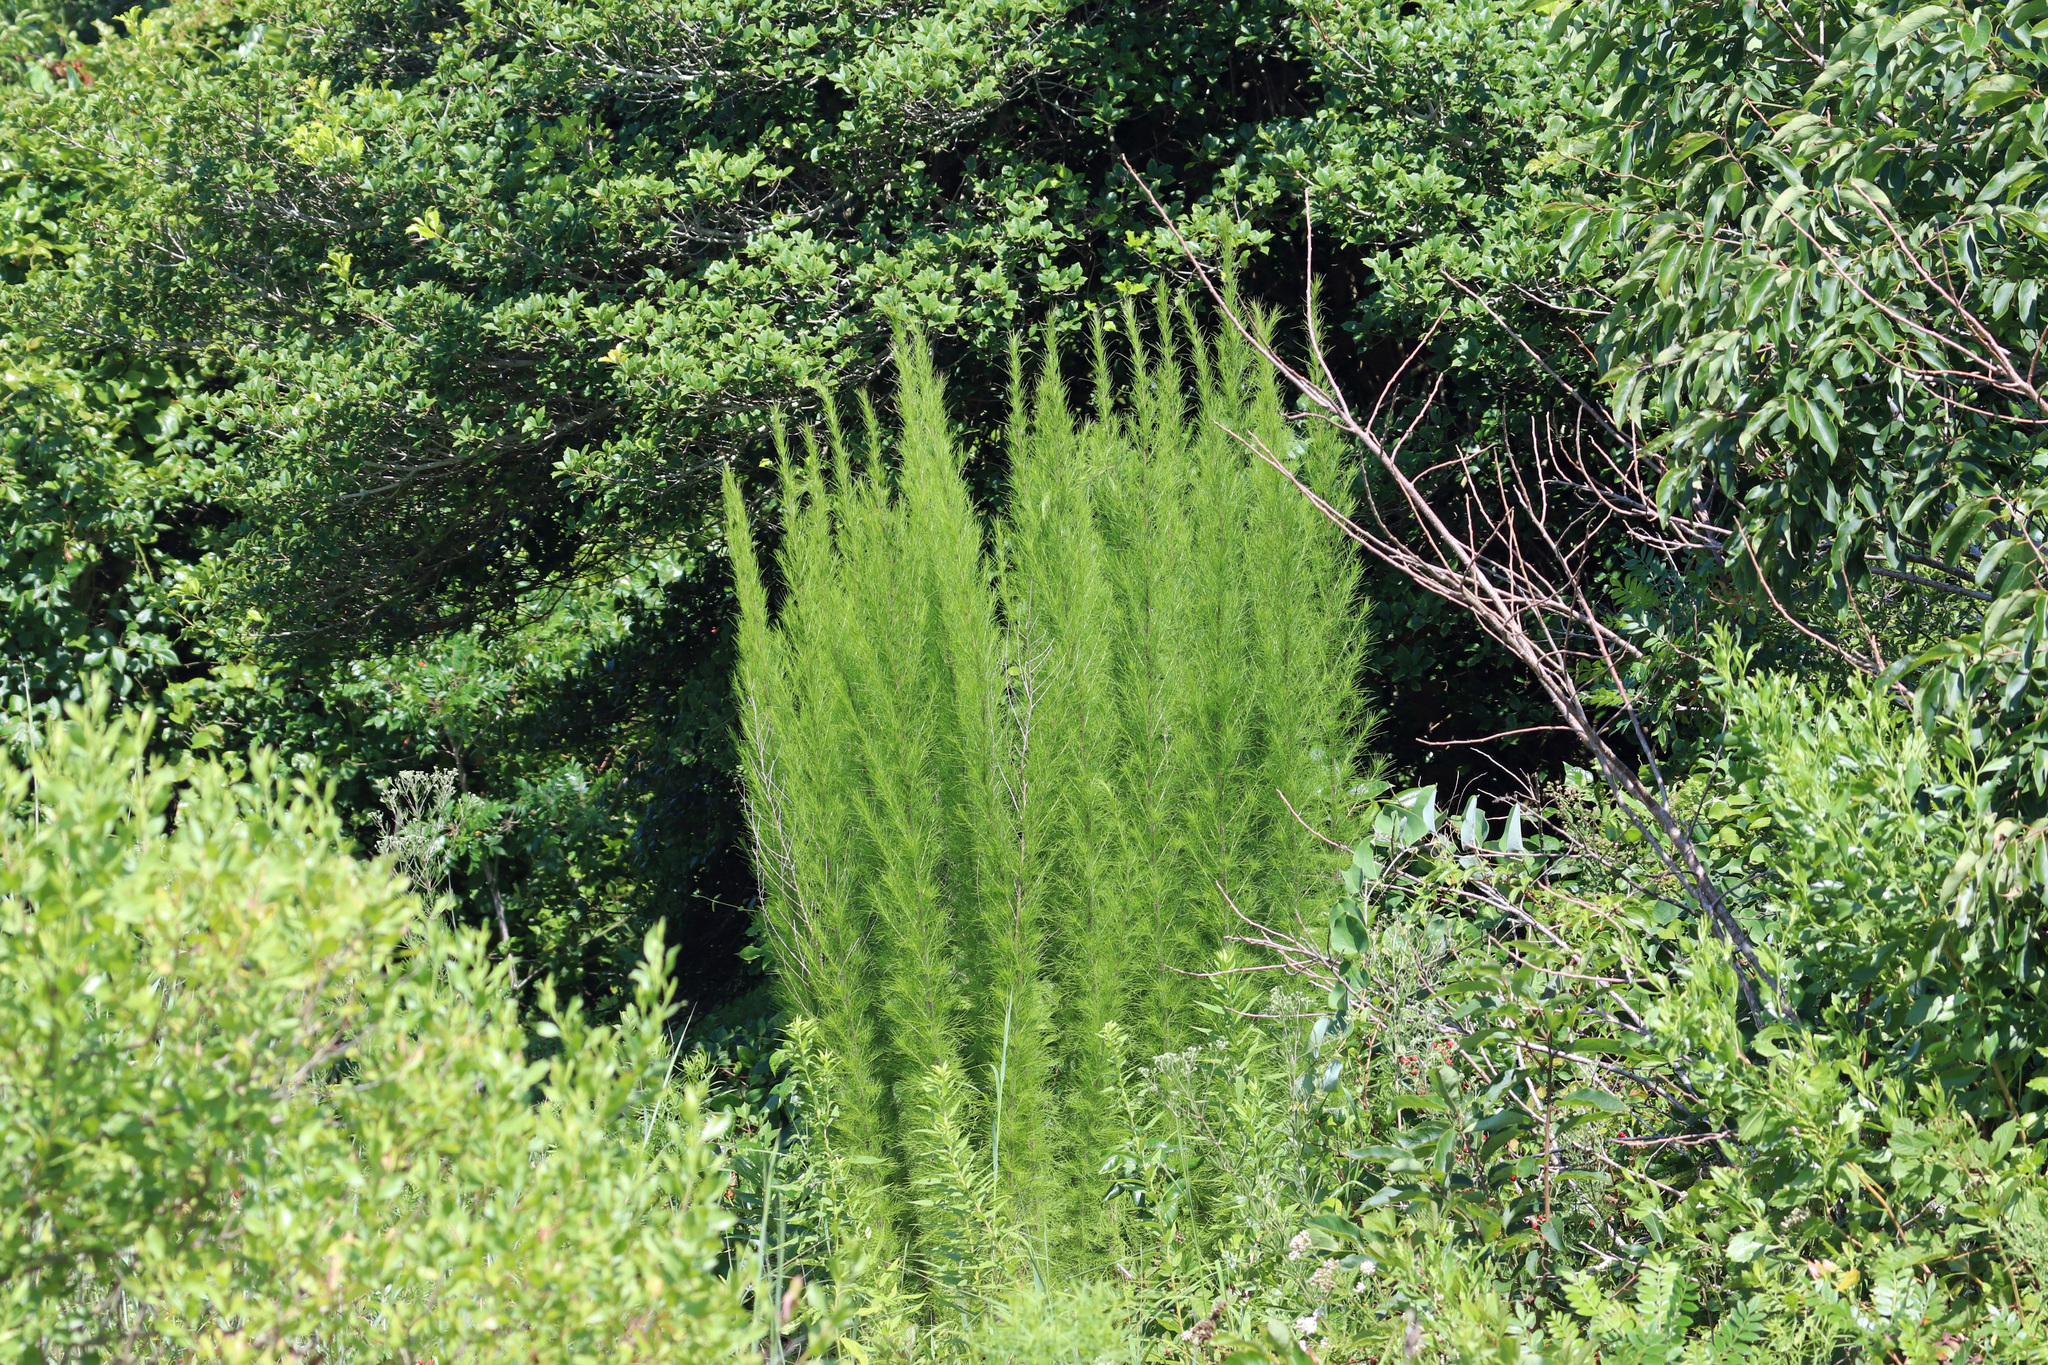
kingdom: Plantae
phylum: Tracheophyta
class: Magnoliopsida
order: Asterales
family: Asteraceae
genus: Eupatorium
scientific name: Eupatorium capillifolium
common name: Dog-fennel
